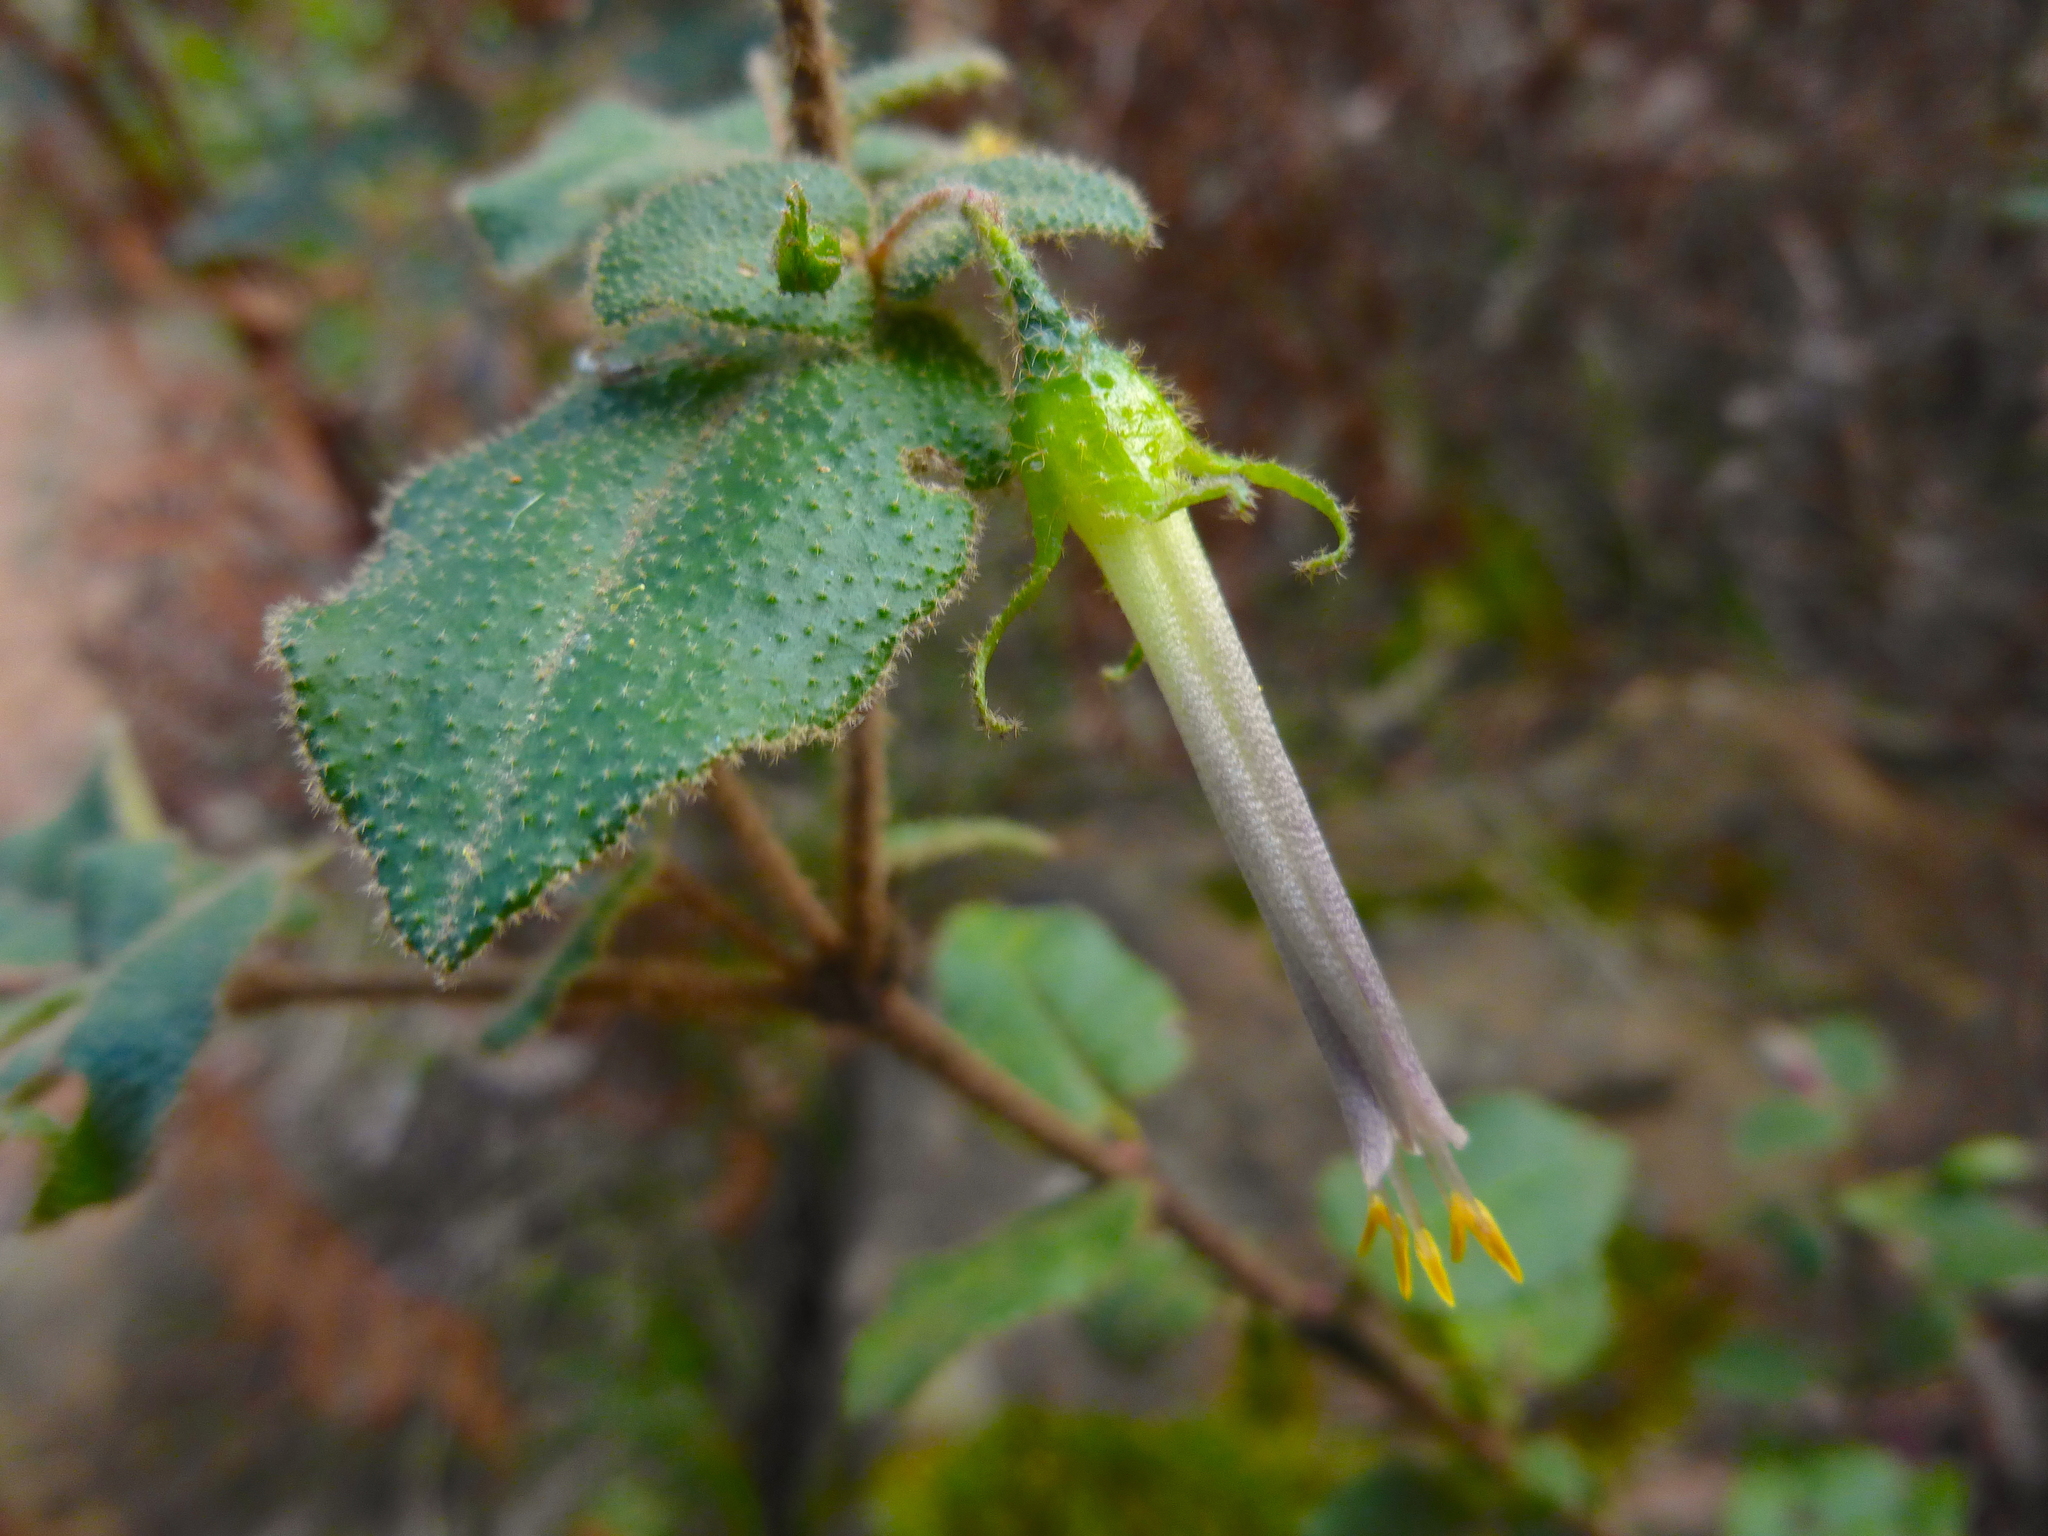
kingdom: Plantae
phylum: Tracheophyta
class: Magnoliopsida
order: Sapindales
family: Rutaceae
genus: Correa
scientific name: Correa aemula
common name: Hairy correa
